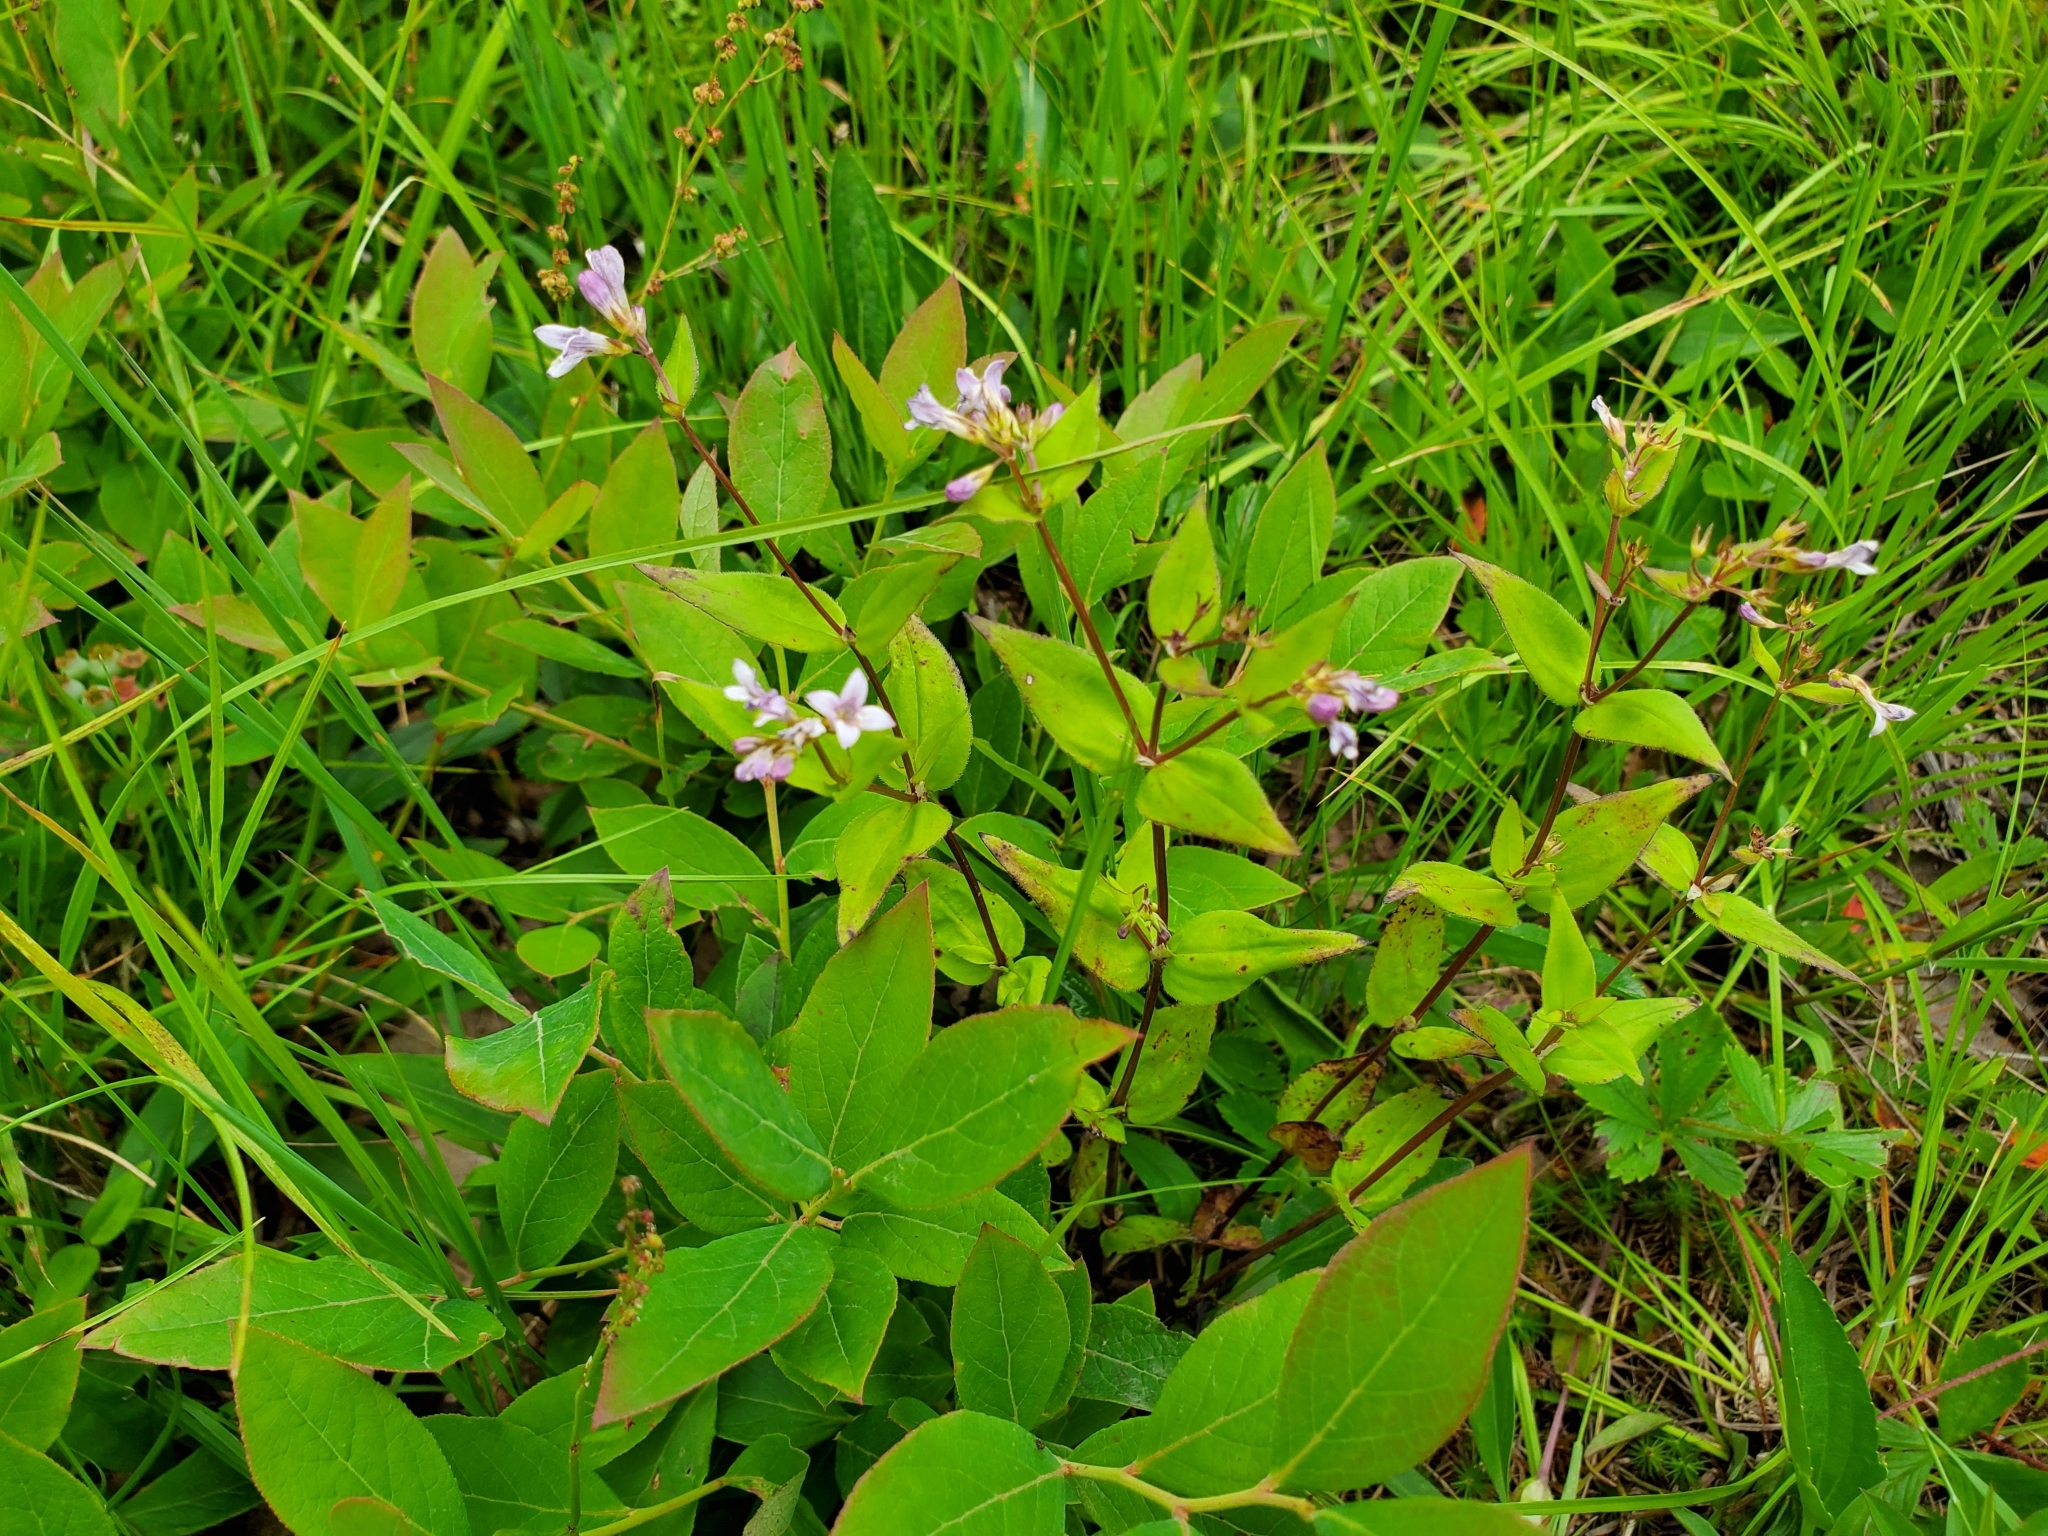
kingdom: Plantae
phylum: Tracheophyta
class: Magnoliopsida
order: Gentianales
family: Rubiaceae
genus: Houstonia
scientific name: Houstonia purpurea
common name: Summer bluet
